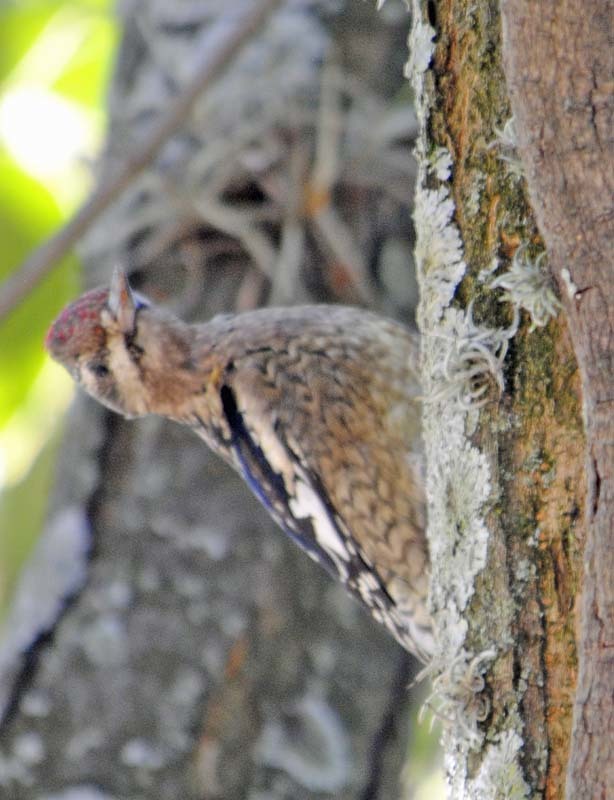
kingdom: Animalia
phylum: Chordata
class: Aves
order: Piciformes
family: Picidae
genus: Sphyrapicus
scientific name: Sphyrapicus varius
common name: Yellow-bellied sapsucker
